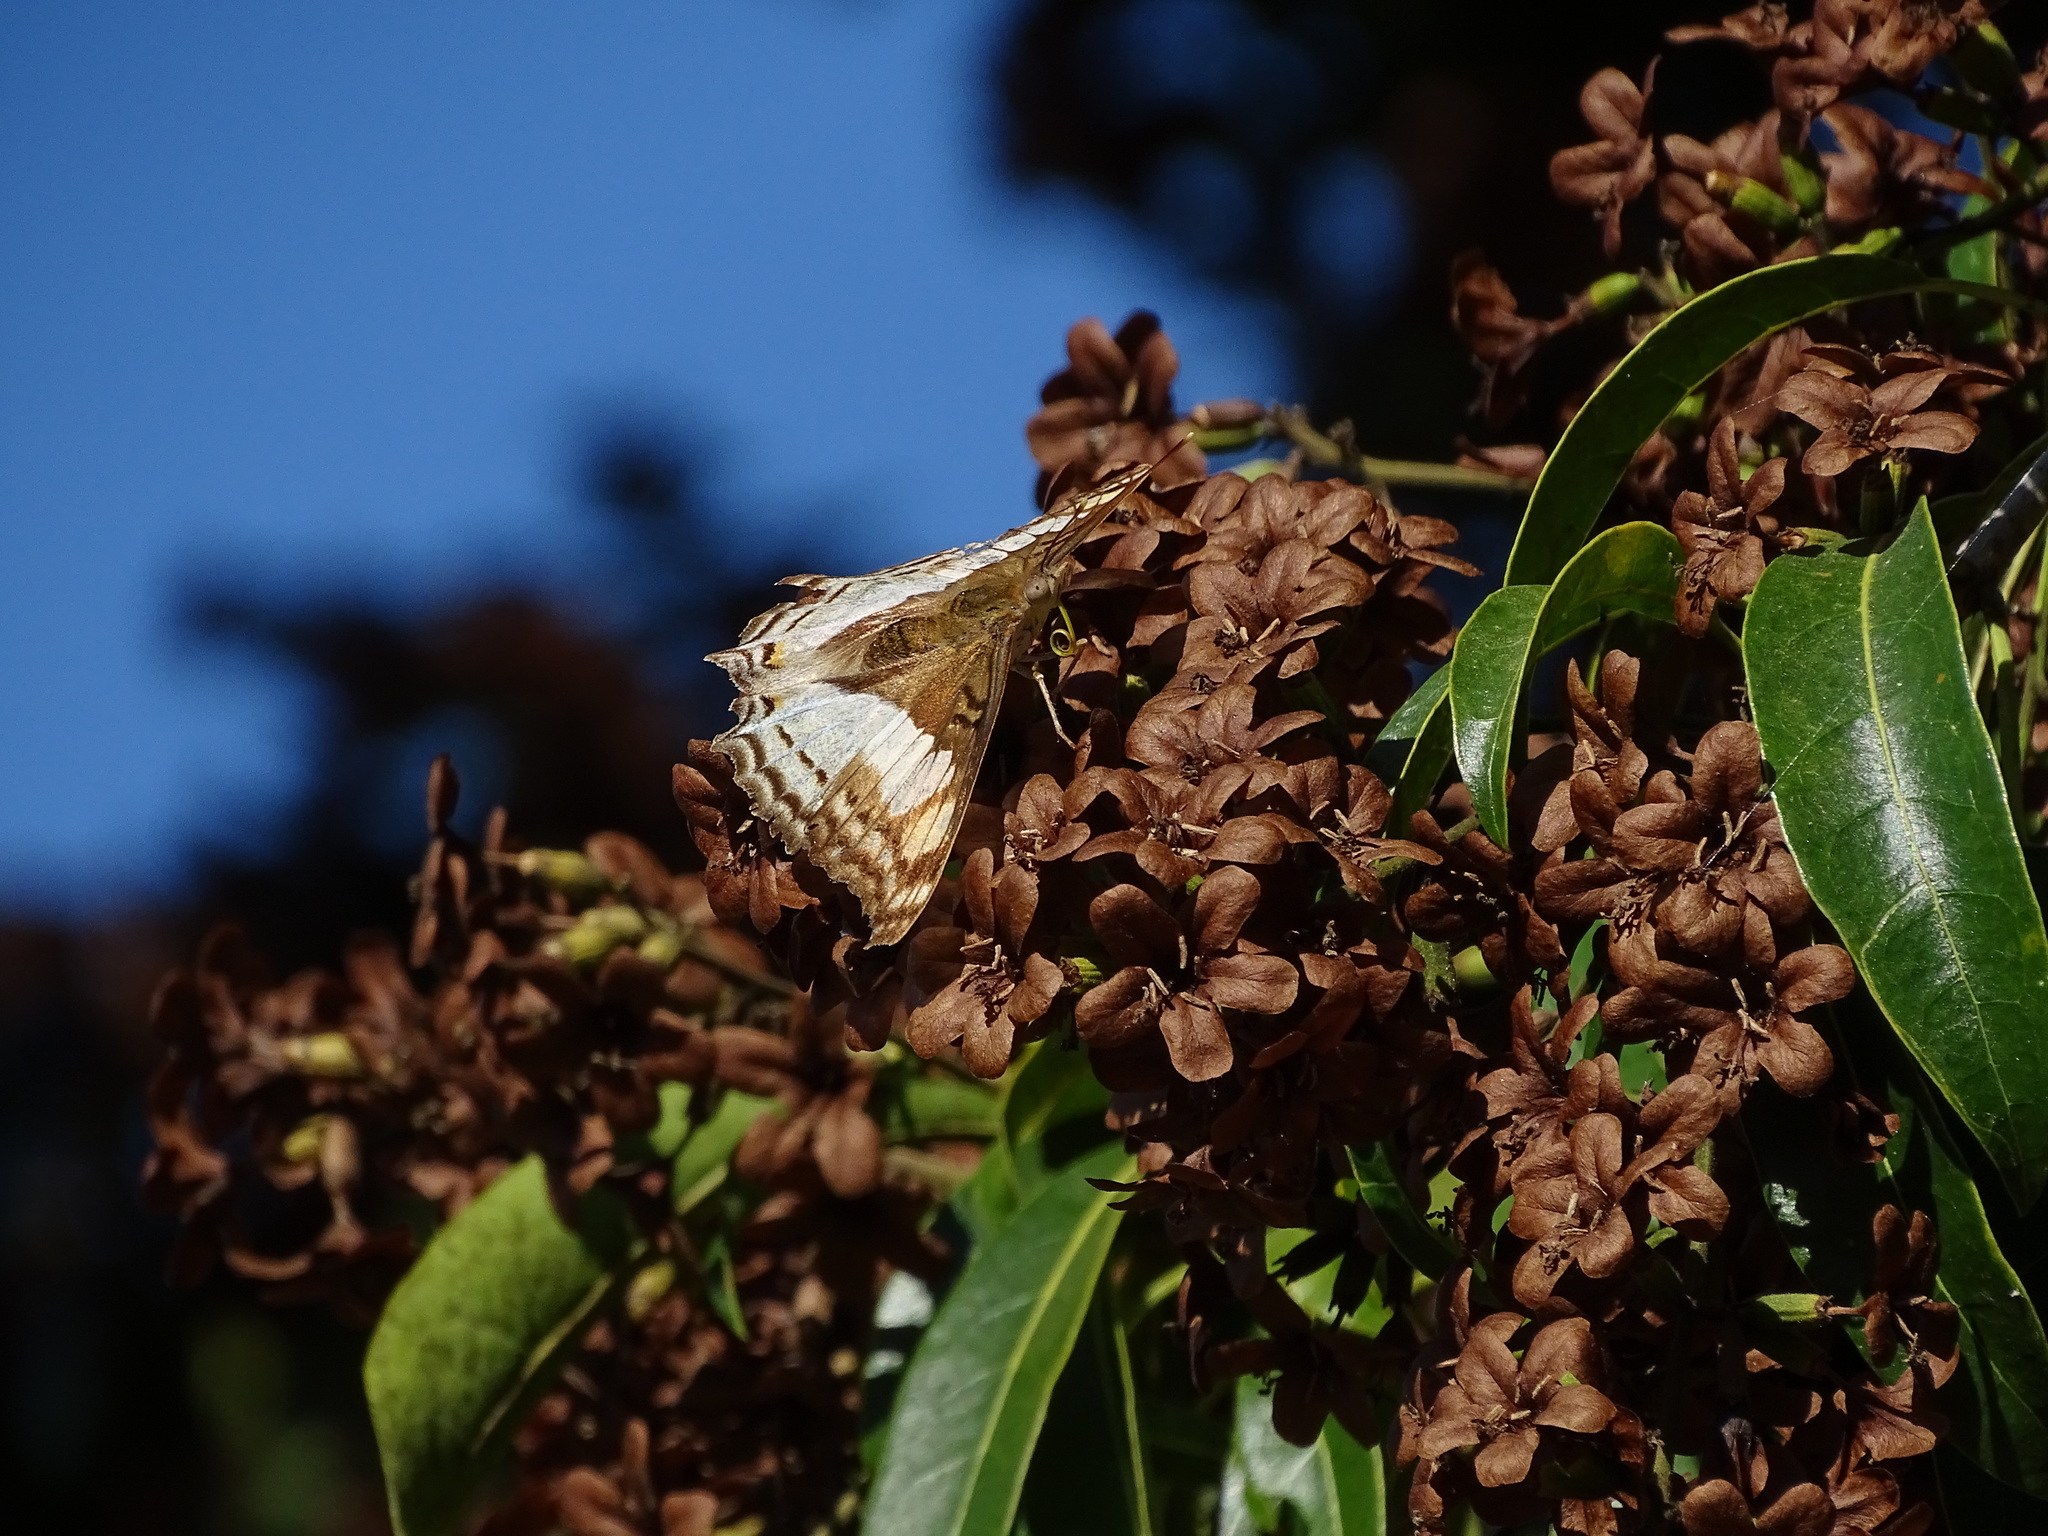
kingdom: Animalia
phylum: Arthropoda
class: Insecta
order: Lepidoptera
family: Nymphalidae
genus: Doxocopa
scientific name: Doxocopa laure
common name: Silver emperor
